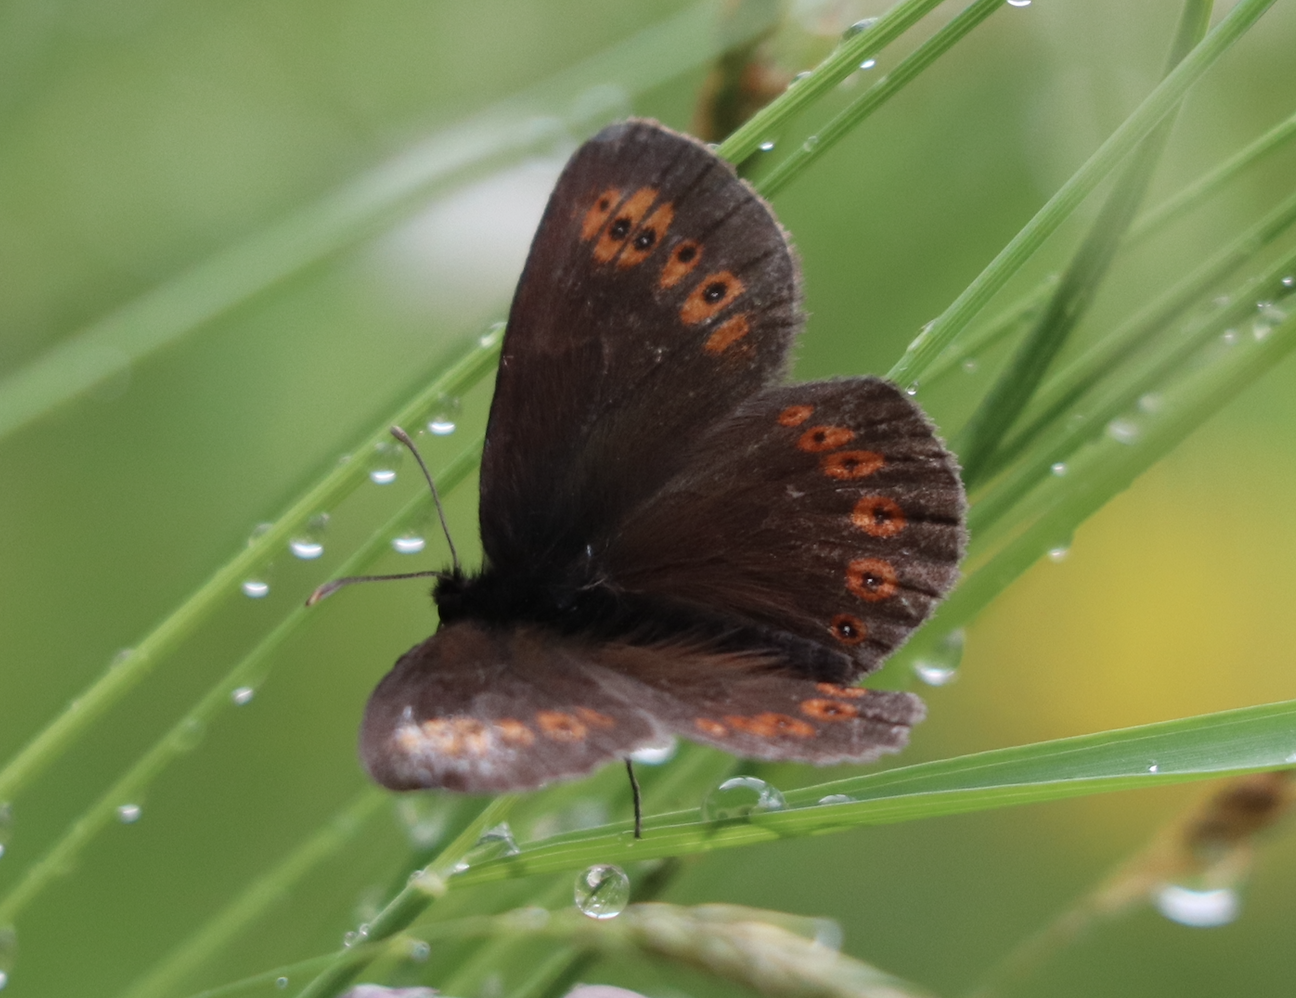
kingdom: Animalia
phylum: Arthropoda
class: Insecta
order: Lepidoptera
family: Nymphalidae
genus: Erebia
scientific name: Erebia alberganus
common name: Almond-eyed ringlet
